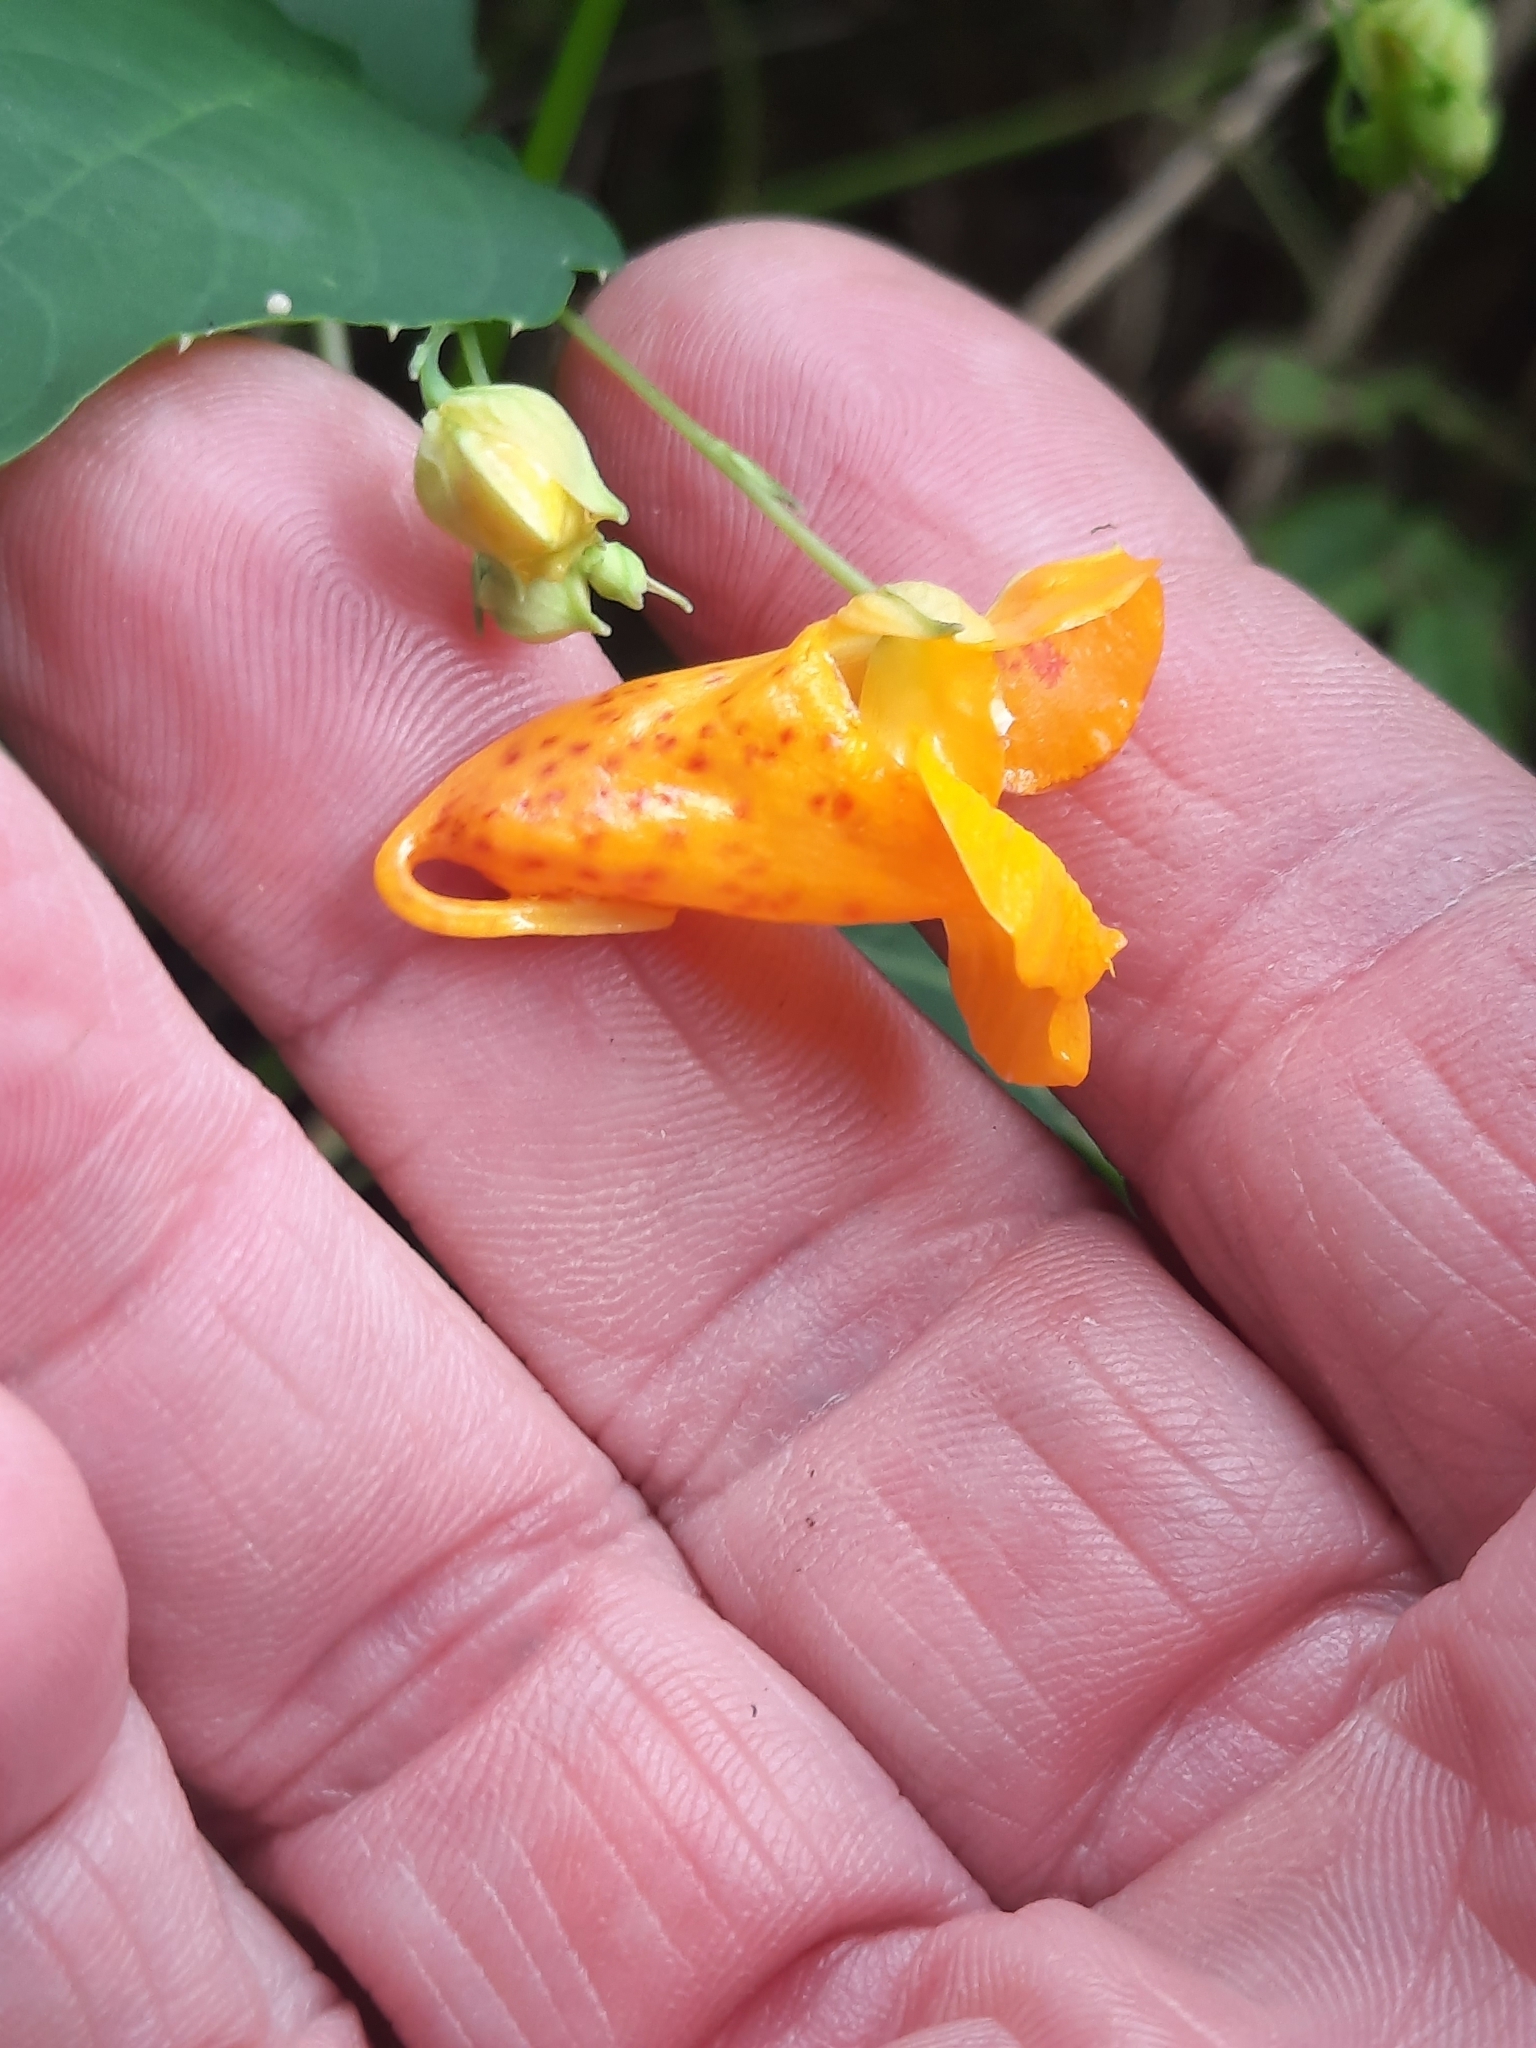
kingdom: Plantae
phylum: Tracheophyta
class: Magnoliopsida
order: Ericales
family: Balsaminaceae
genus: Impatiens
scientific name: Impatiens capensis
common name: Orange balsam
